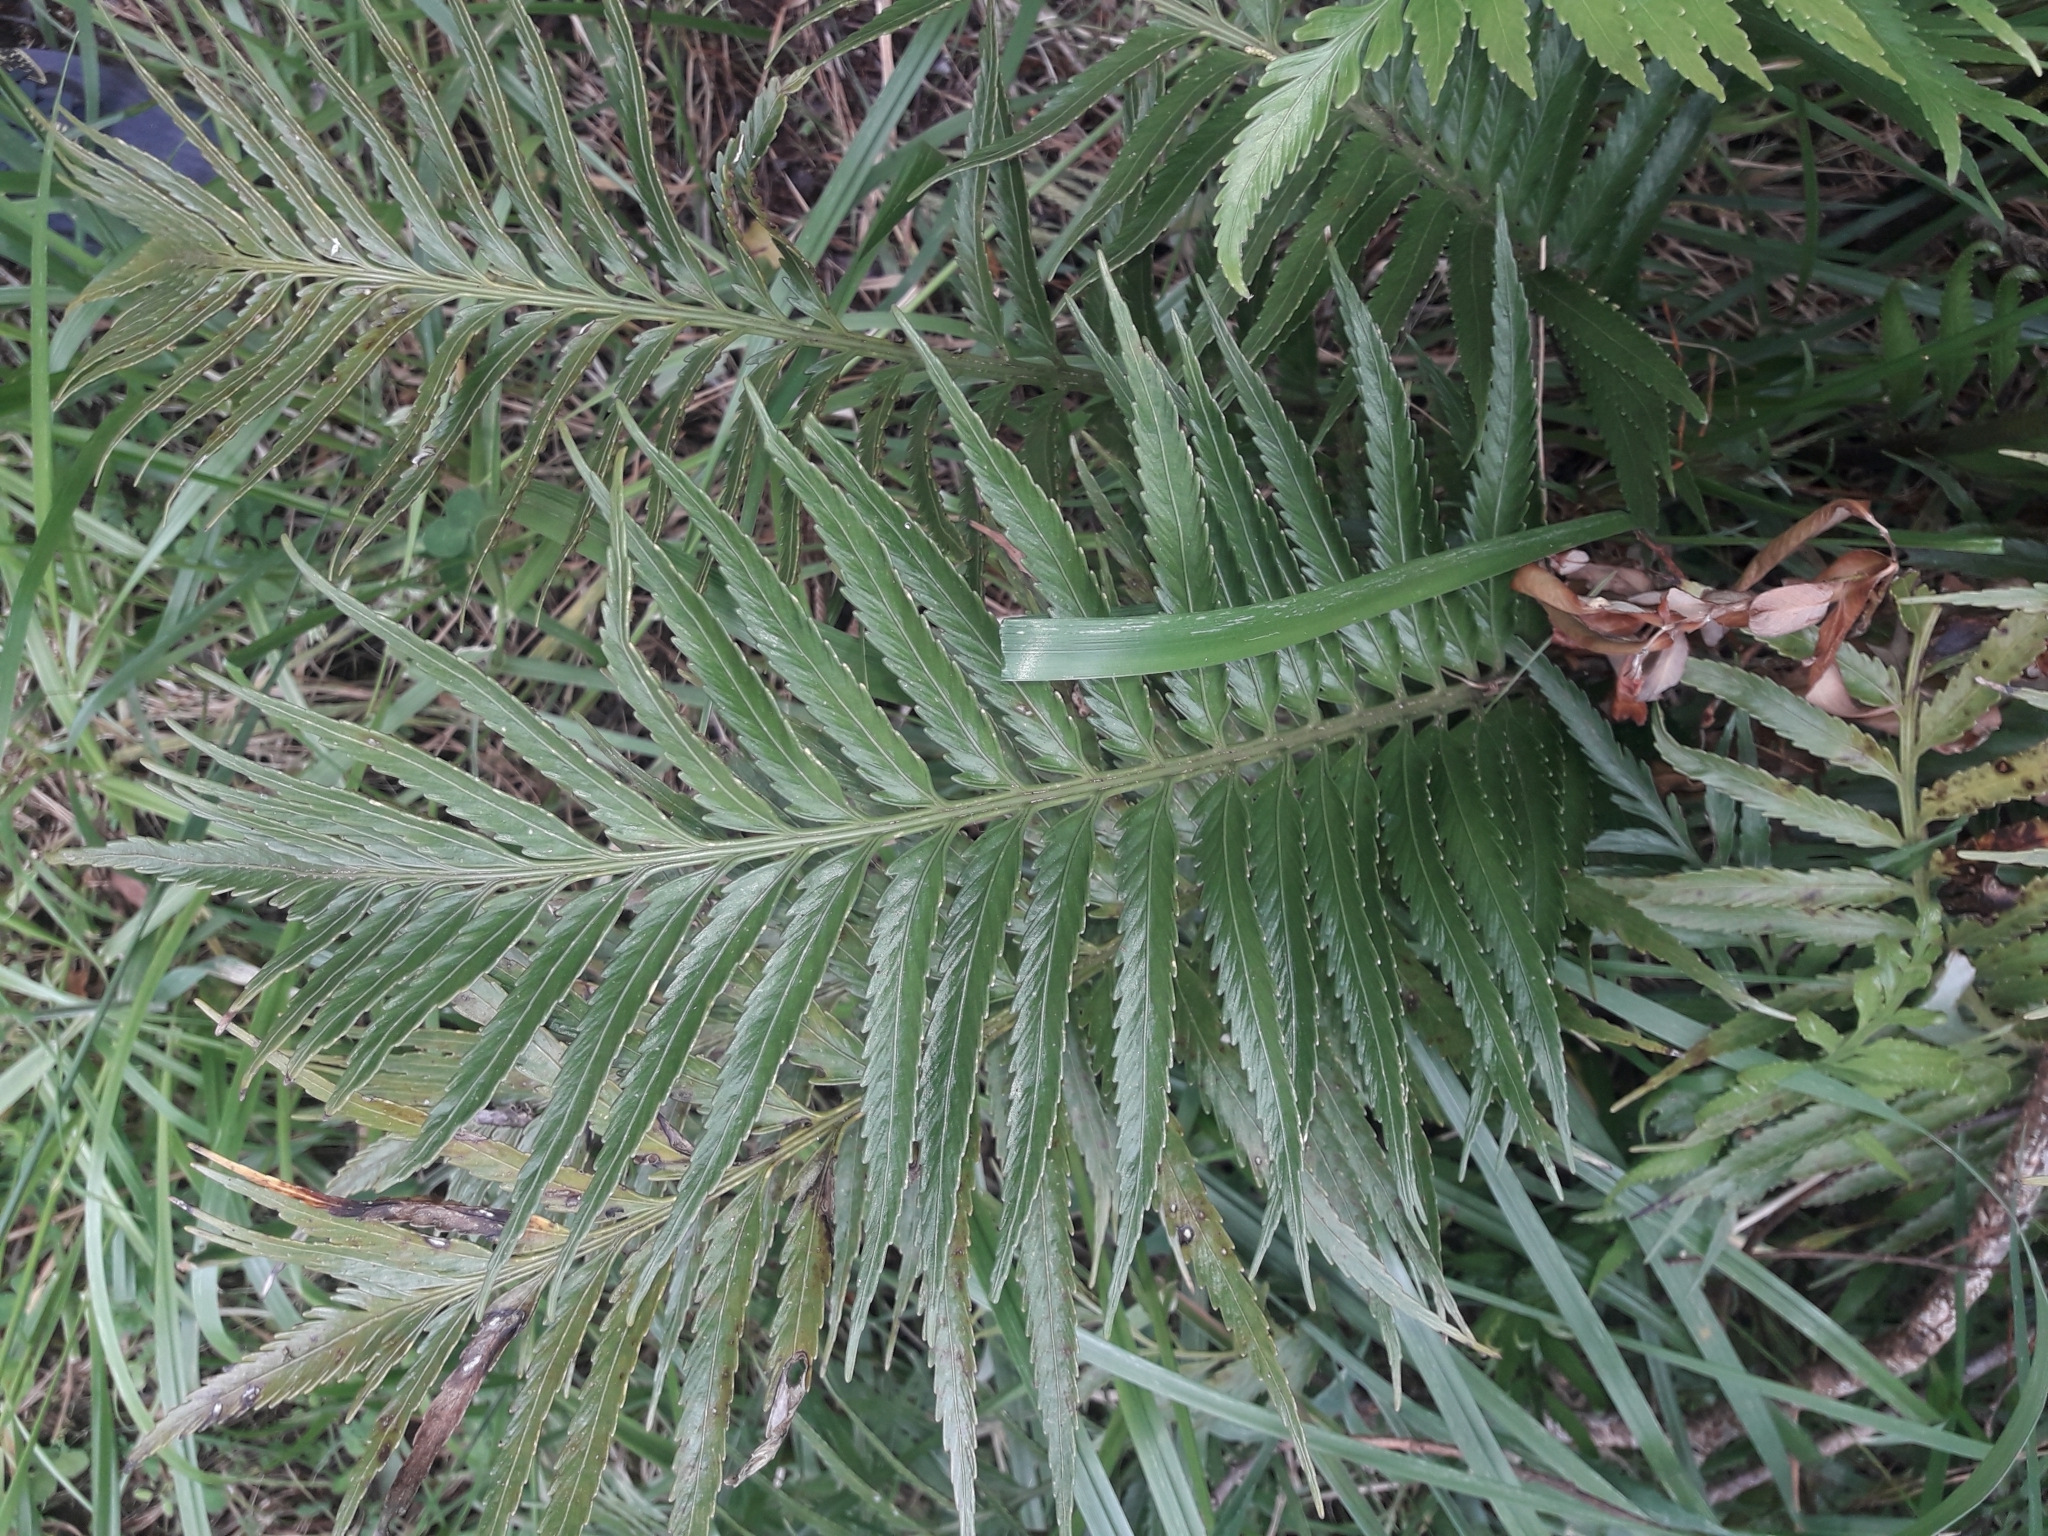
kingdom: Plantae
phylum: Tracheophyta
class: Polypodiopsida
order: Polypodiales
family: Aspleniaceae
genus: Asplenium
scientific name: Asplenium scleroprium
